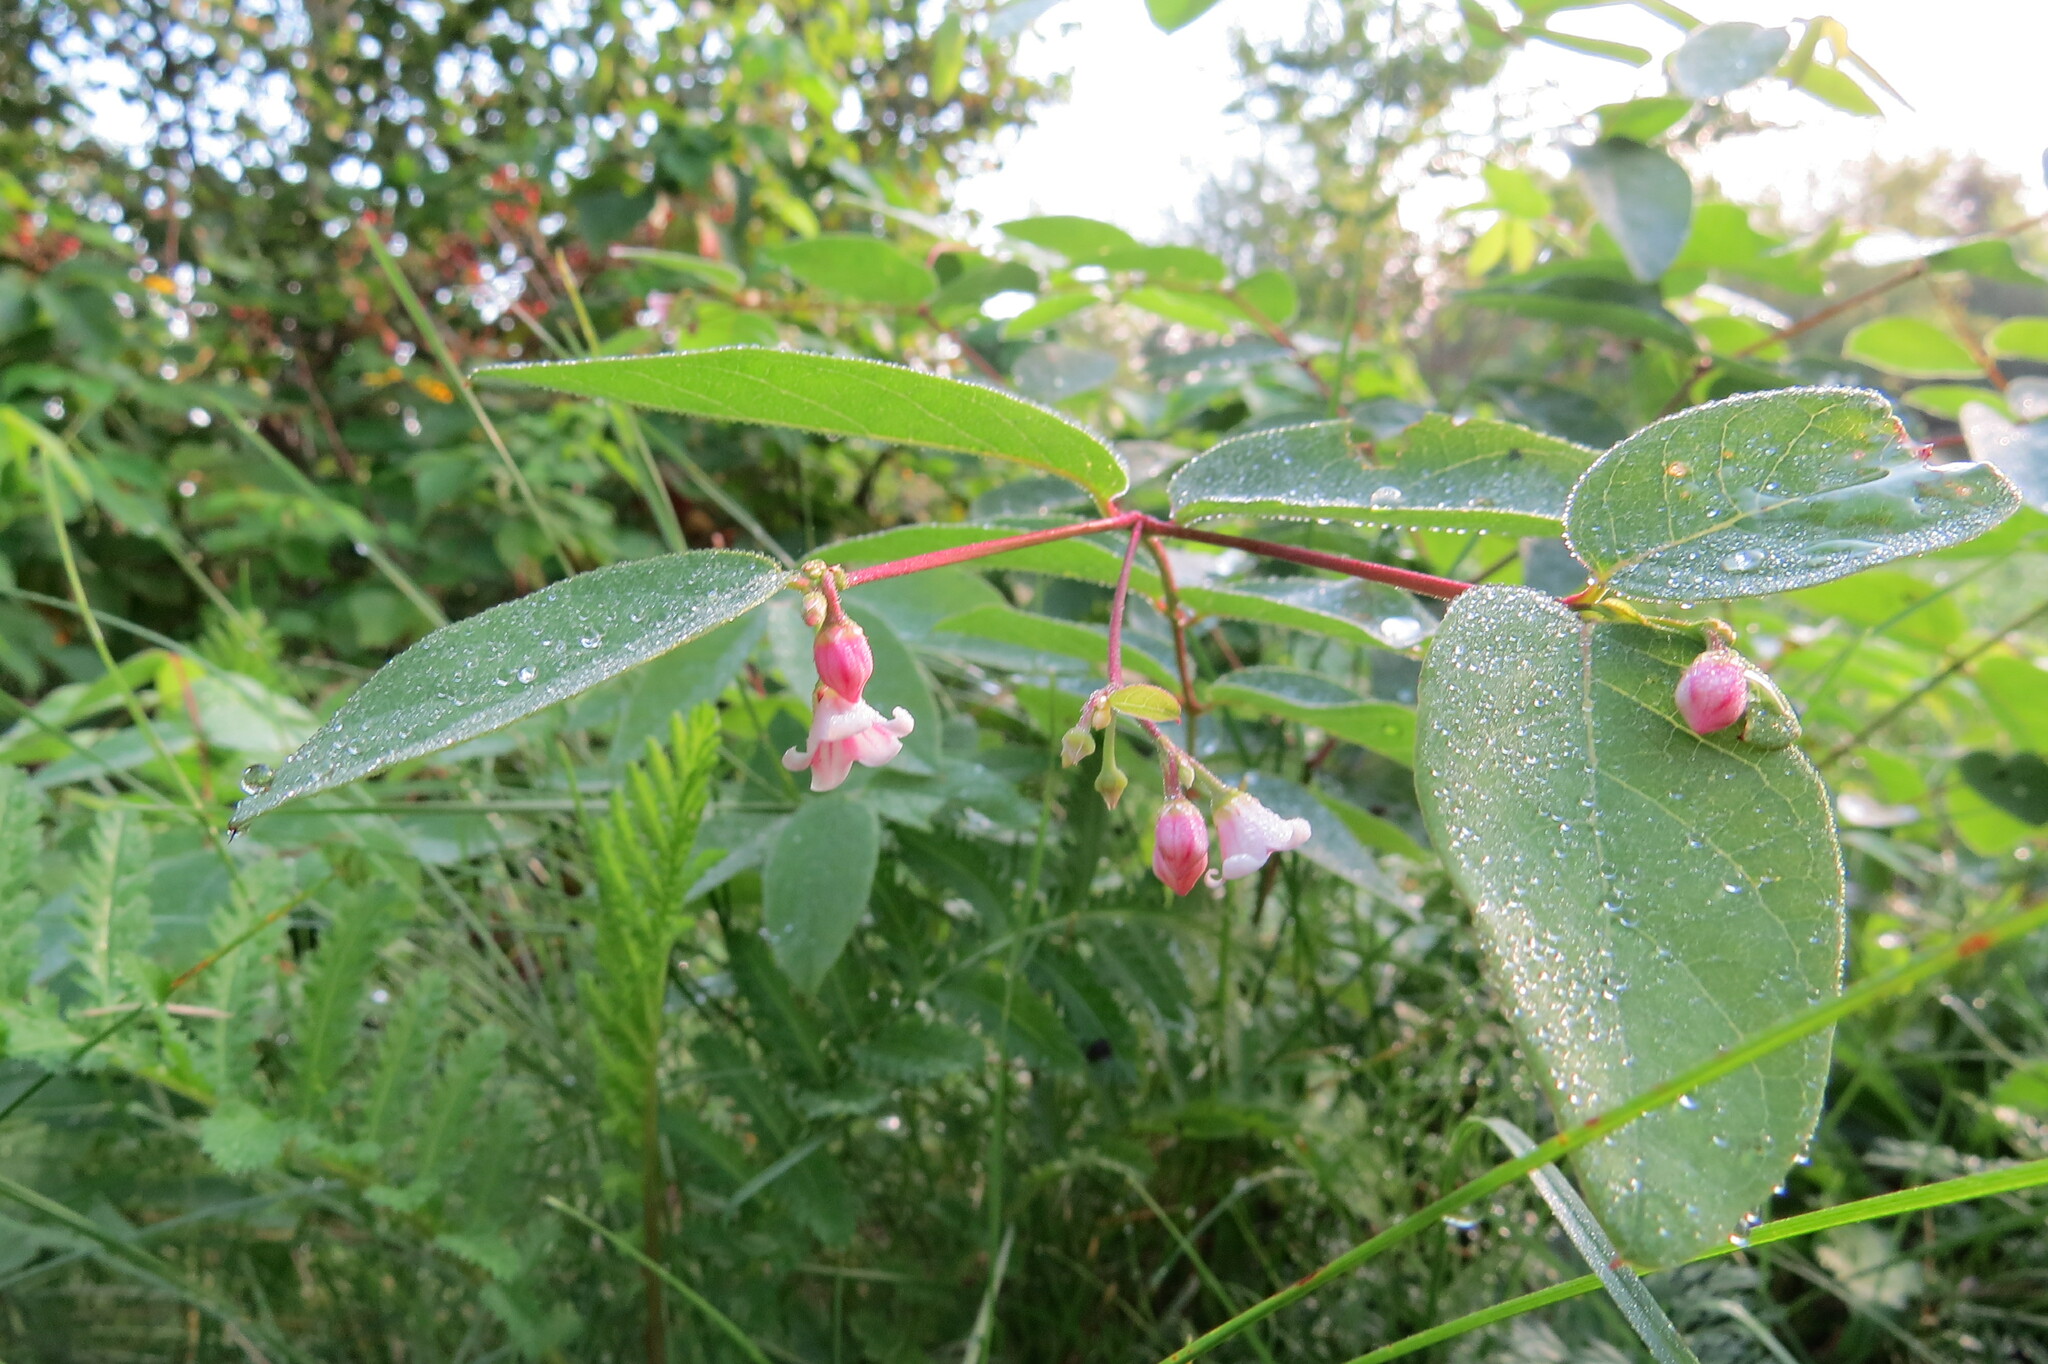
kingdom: Plantae
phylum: Tracheophyta
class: Magnoliopsida
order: Gentianales
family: Apocynaceae
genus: Apocynum
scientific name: Apocynum androsaemifolium
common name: Spreading dogbane
